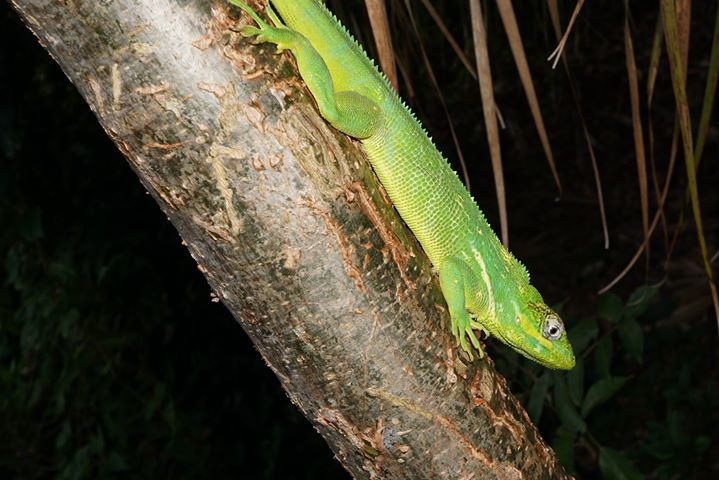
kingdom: Animalia
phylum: Chordata
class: Squamata
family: Dactyloidae
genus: Anolis
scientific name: Anolis equestris
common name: Knight anole
